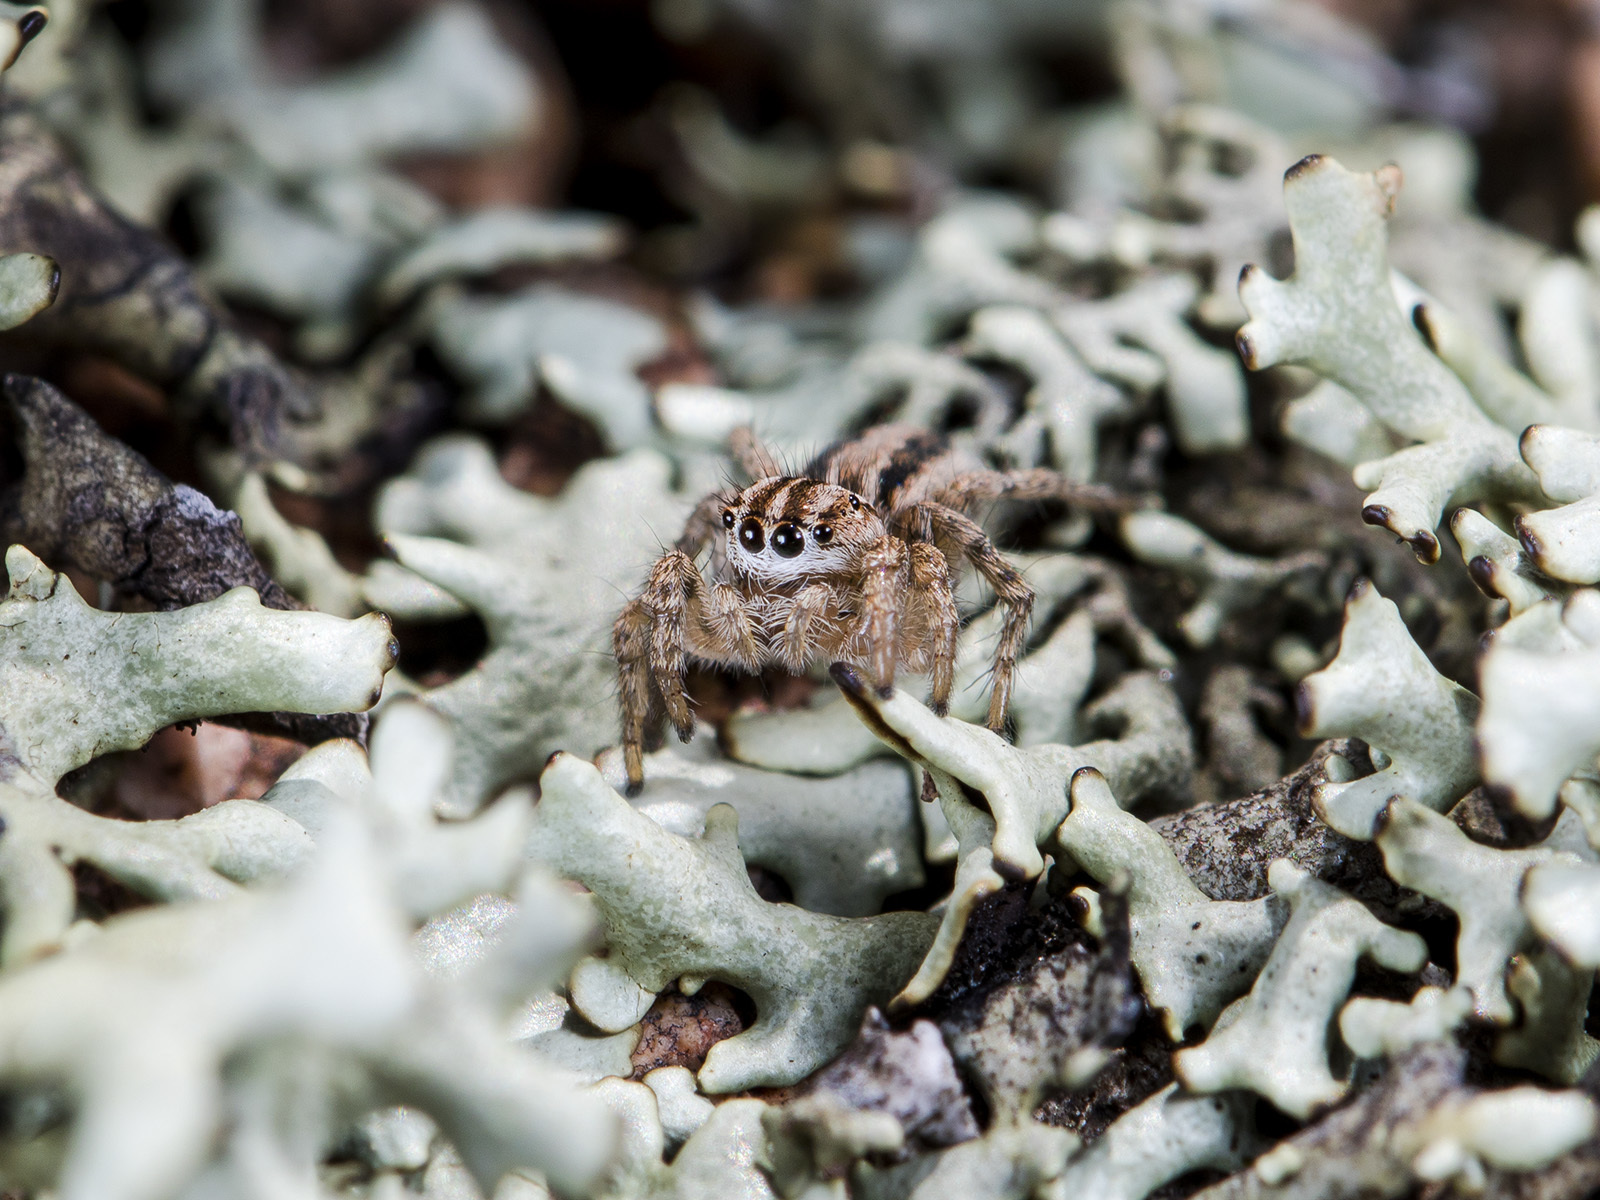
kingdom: Animalia
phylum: Arthropoda
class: Arachnida
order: Araneae
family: Salticidae
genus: Aelurillus
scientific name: Aelurillus m-nigrum
